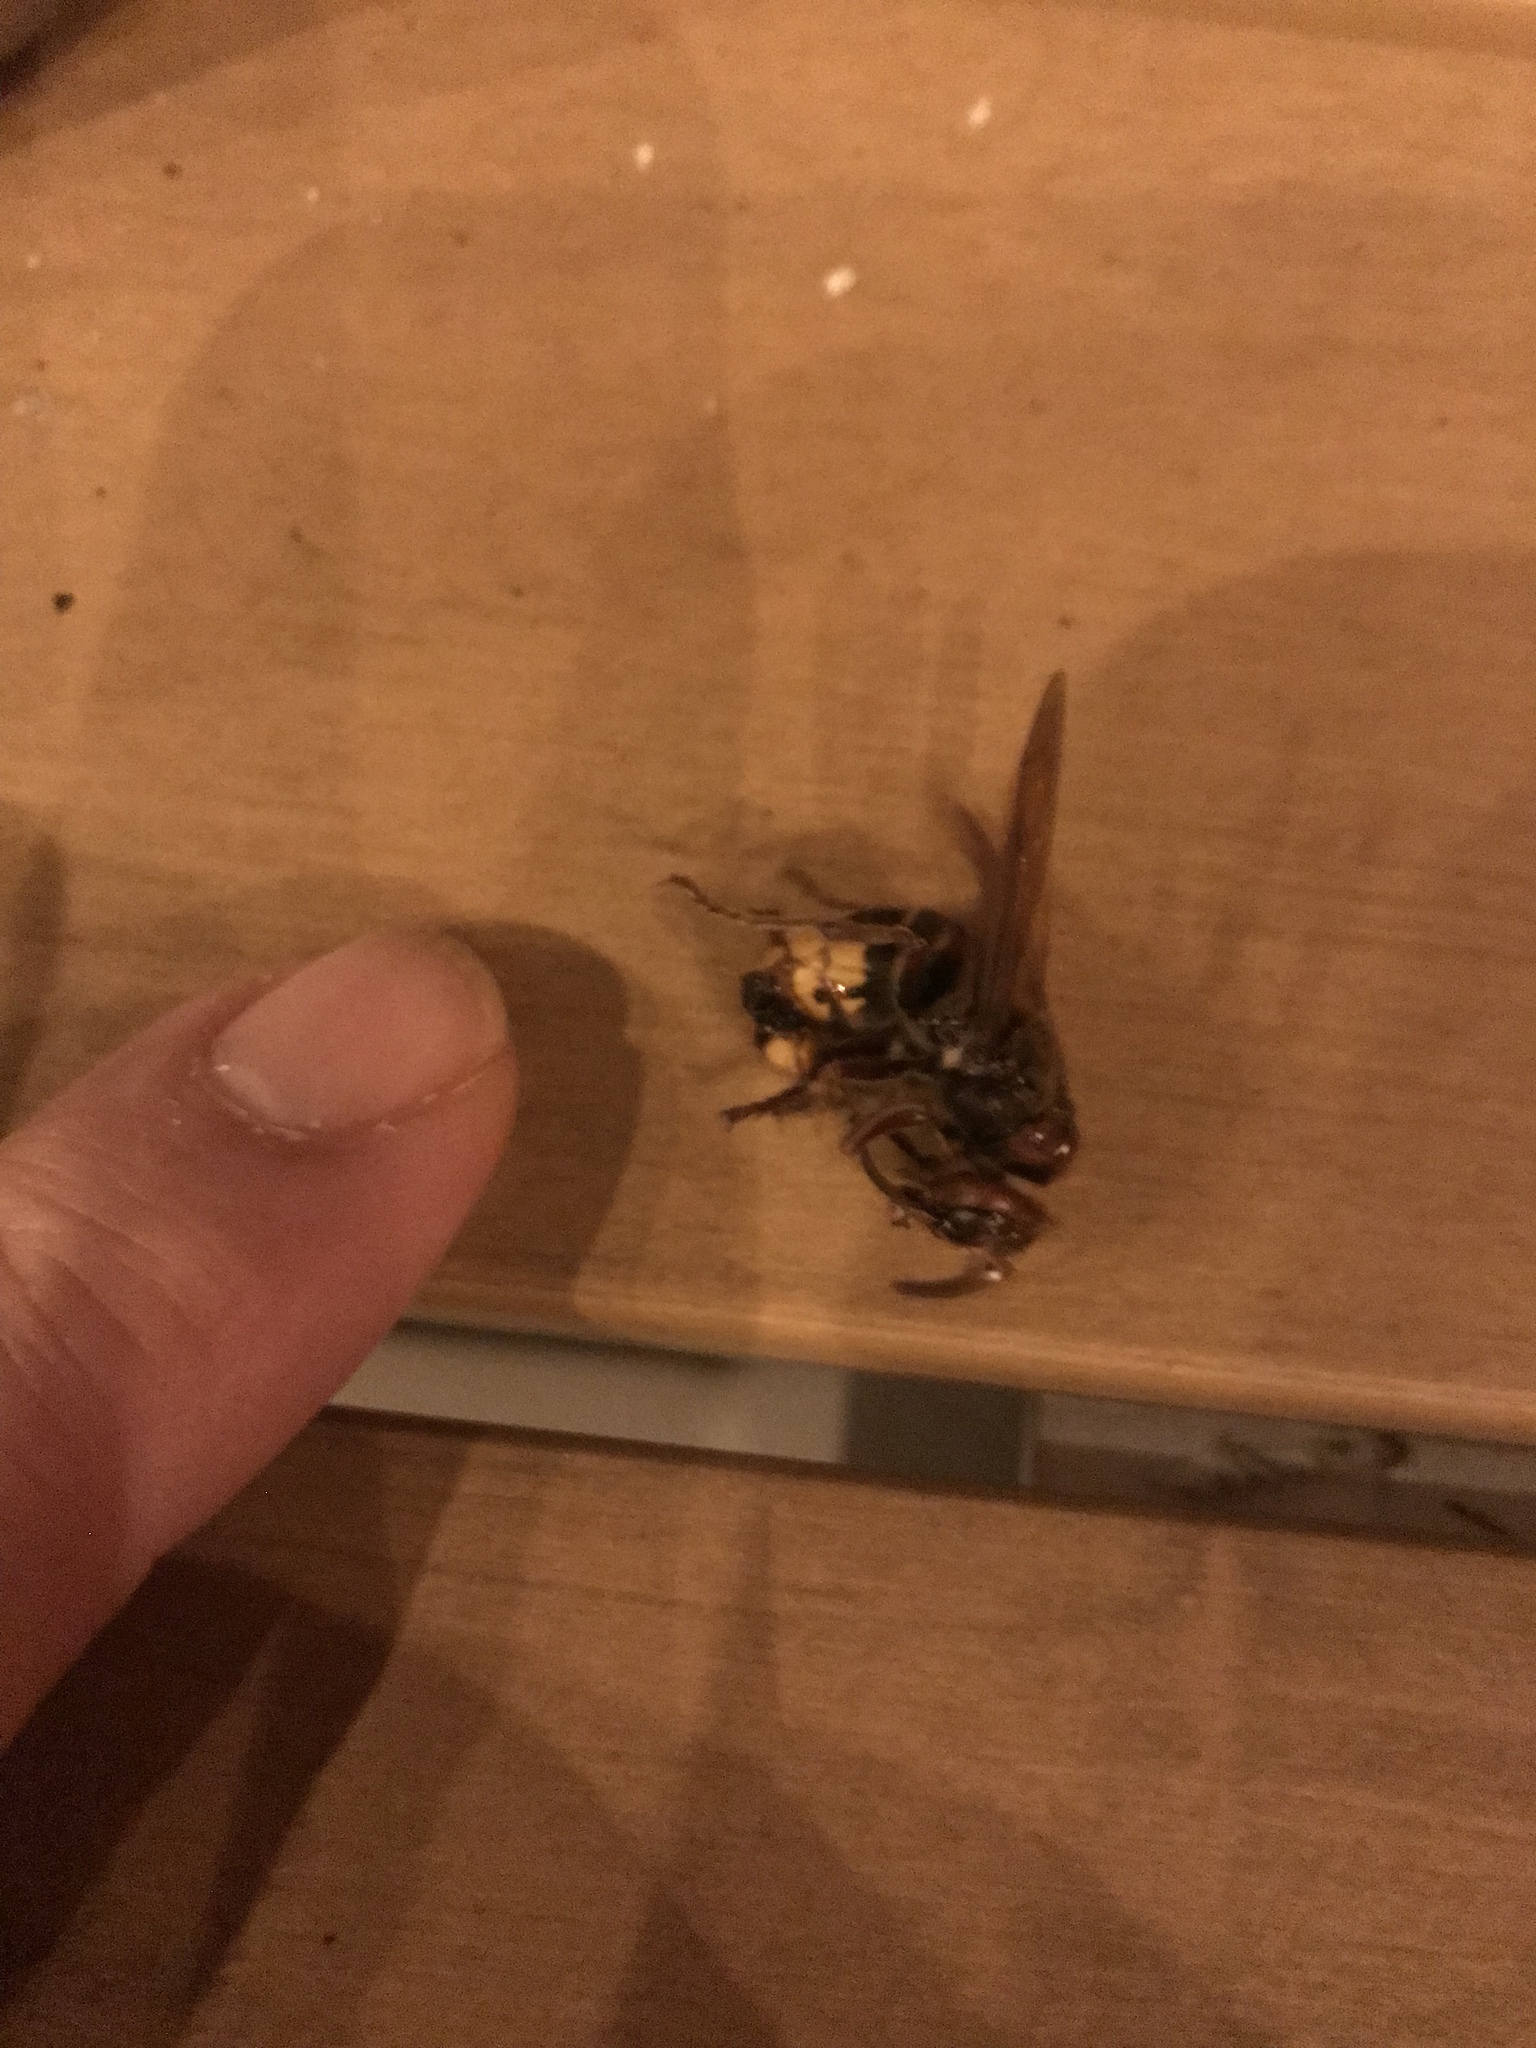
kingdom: Animalia
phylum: Arthropoda
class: Insecta
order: Hymenoptera
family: Vespidae
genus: Vespa
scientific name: Vespa crabro
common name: Hornet
